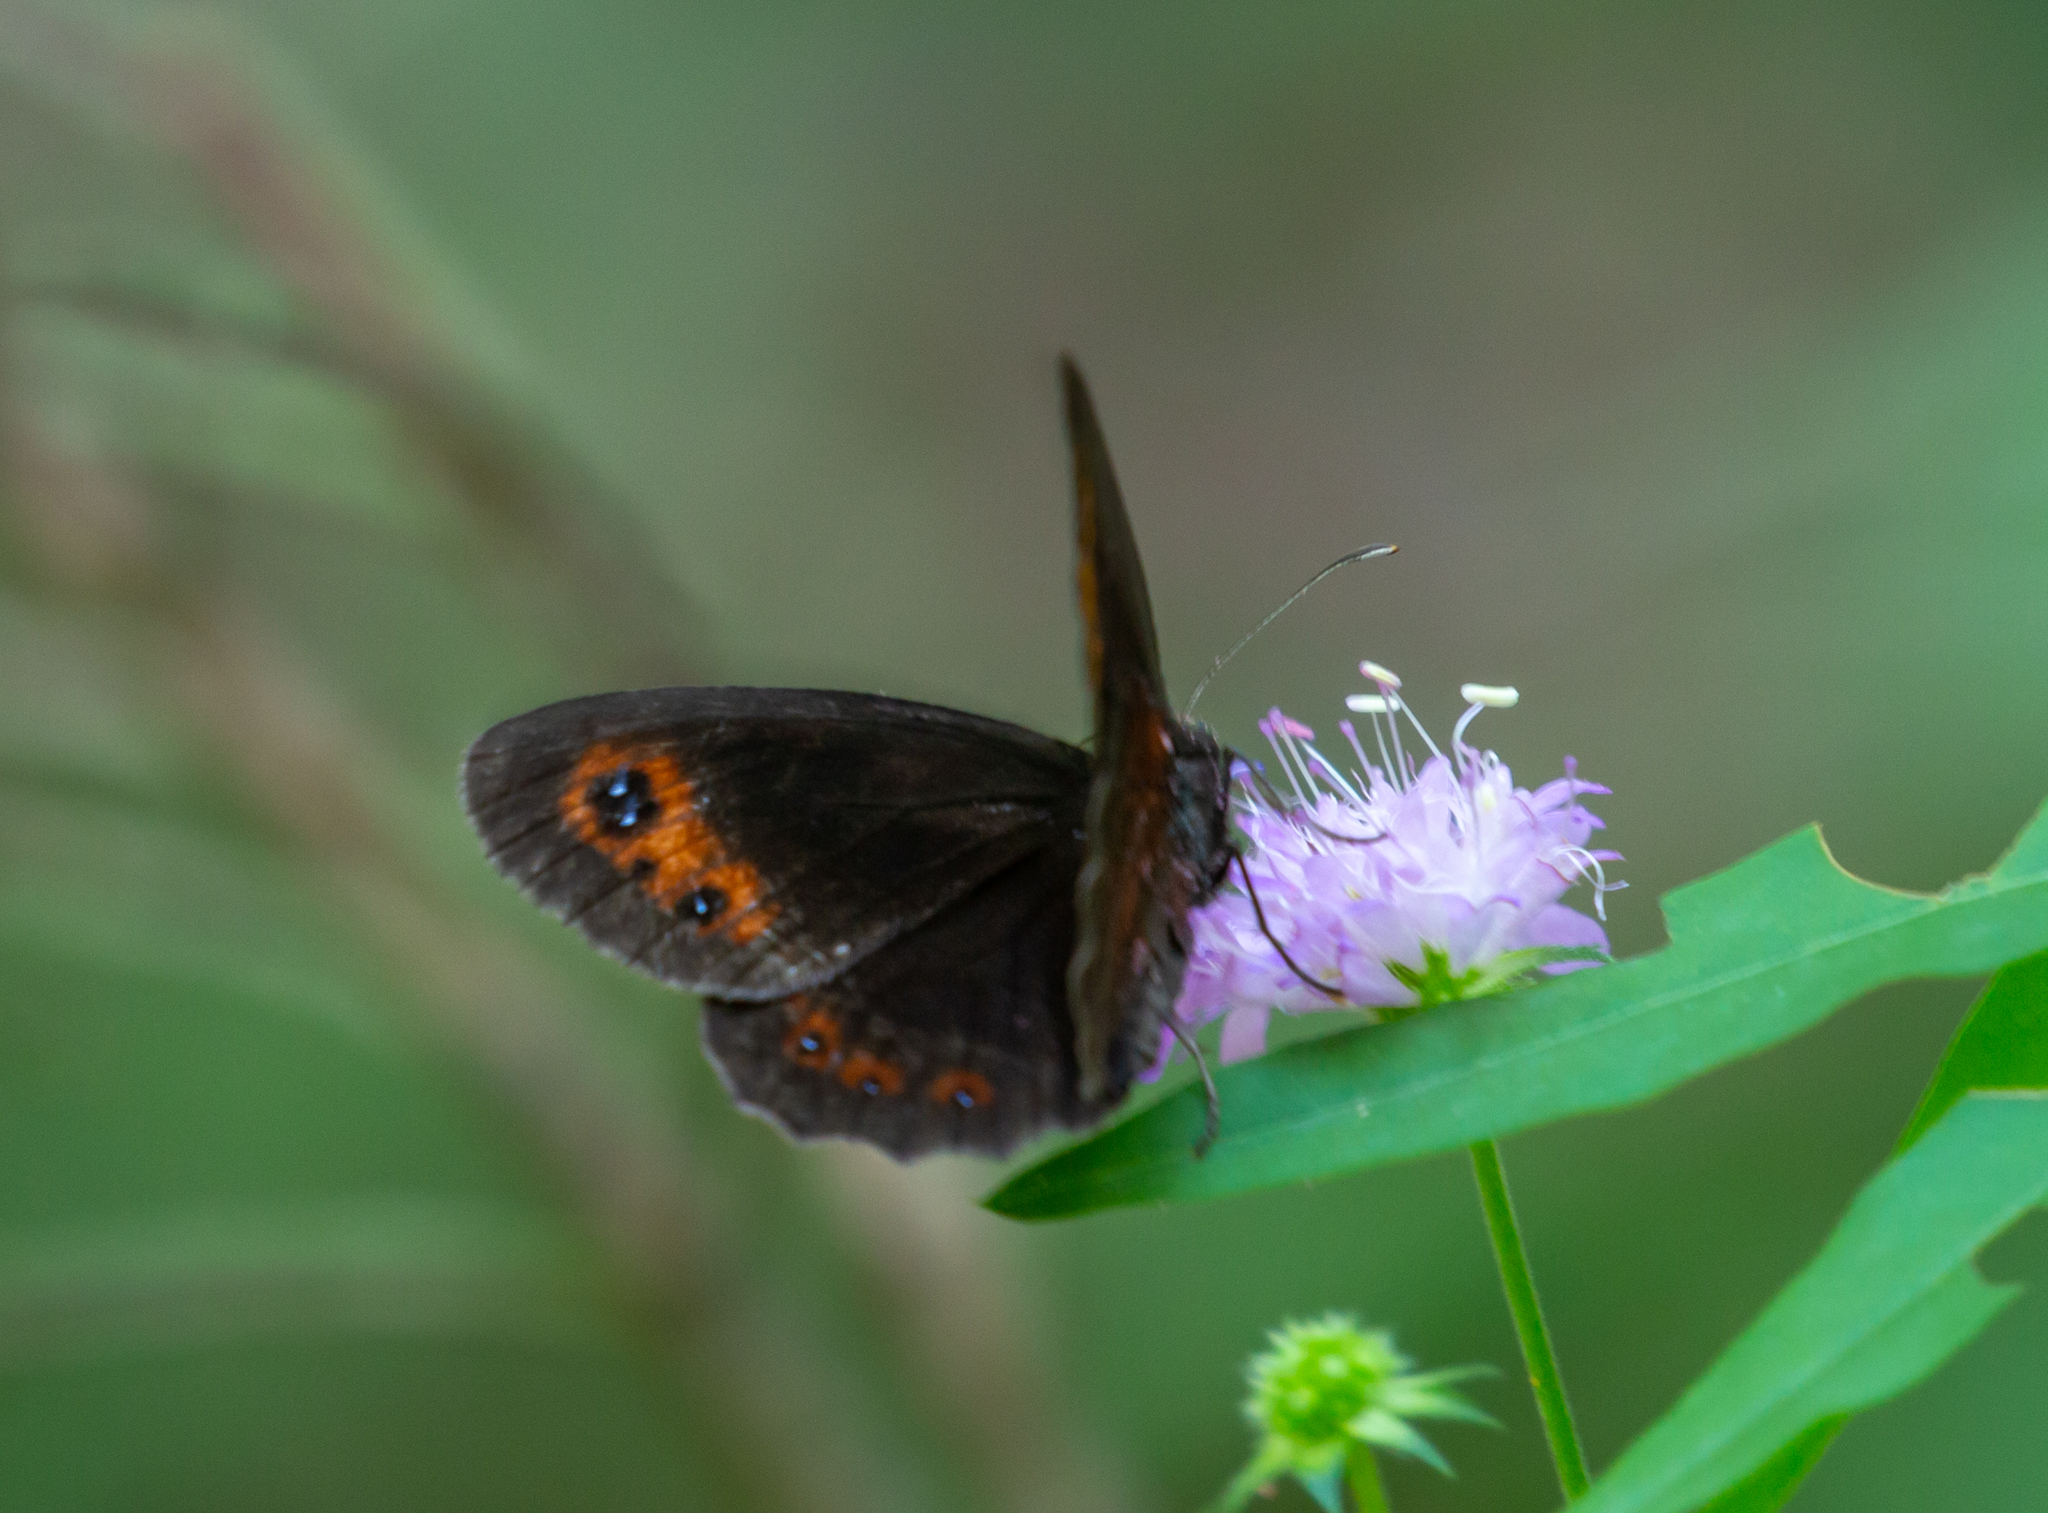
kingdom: Animalia
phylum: Arthropoda
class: Insecta
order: Lepidoptera
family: Nymphalidae
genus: Erebia
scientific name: Erebia aethiops
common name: Scotch argus
